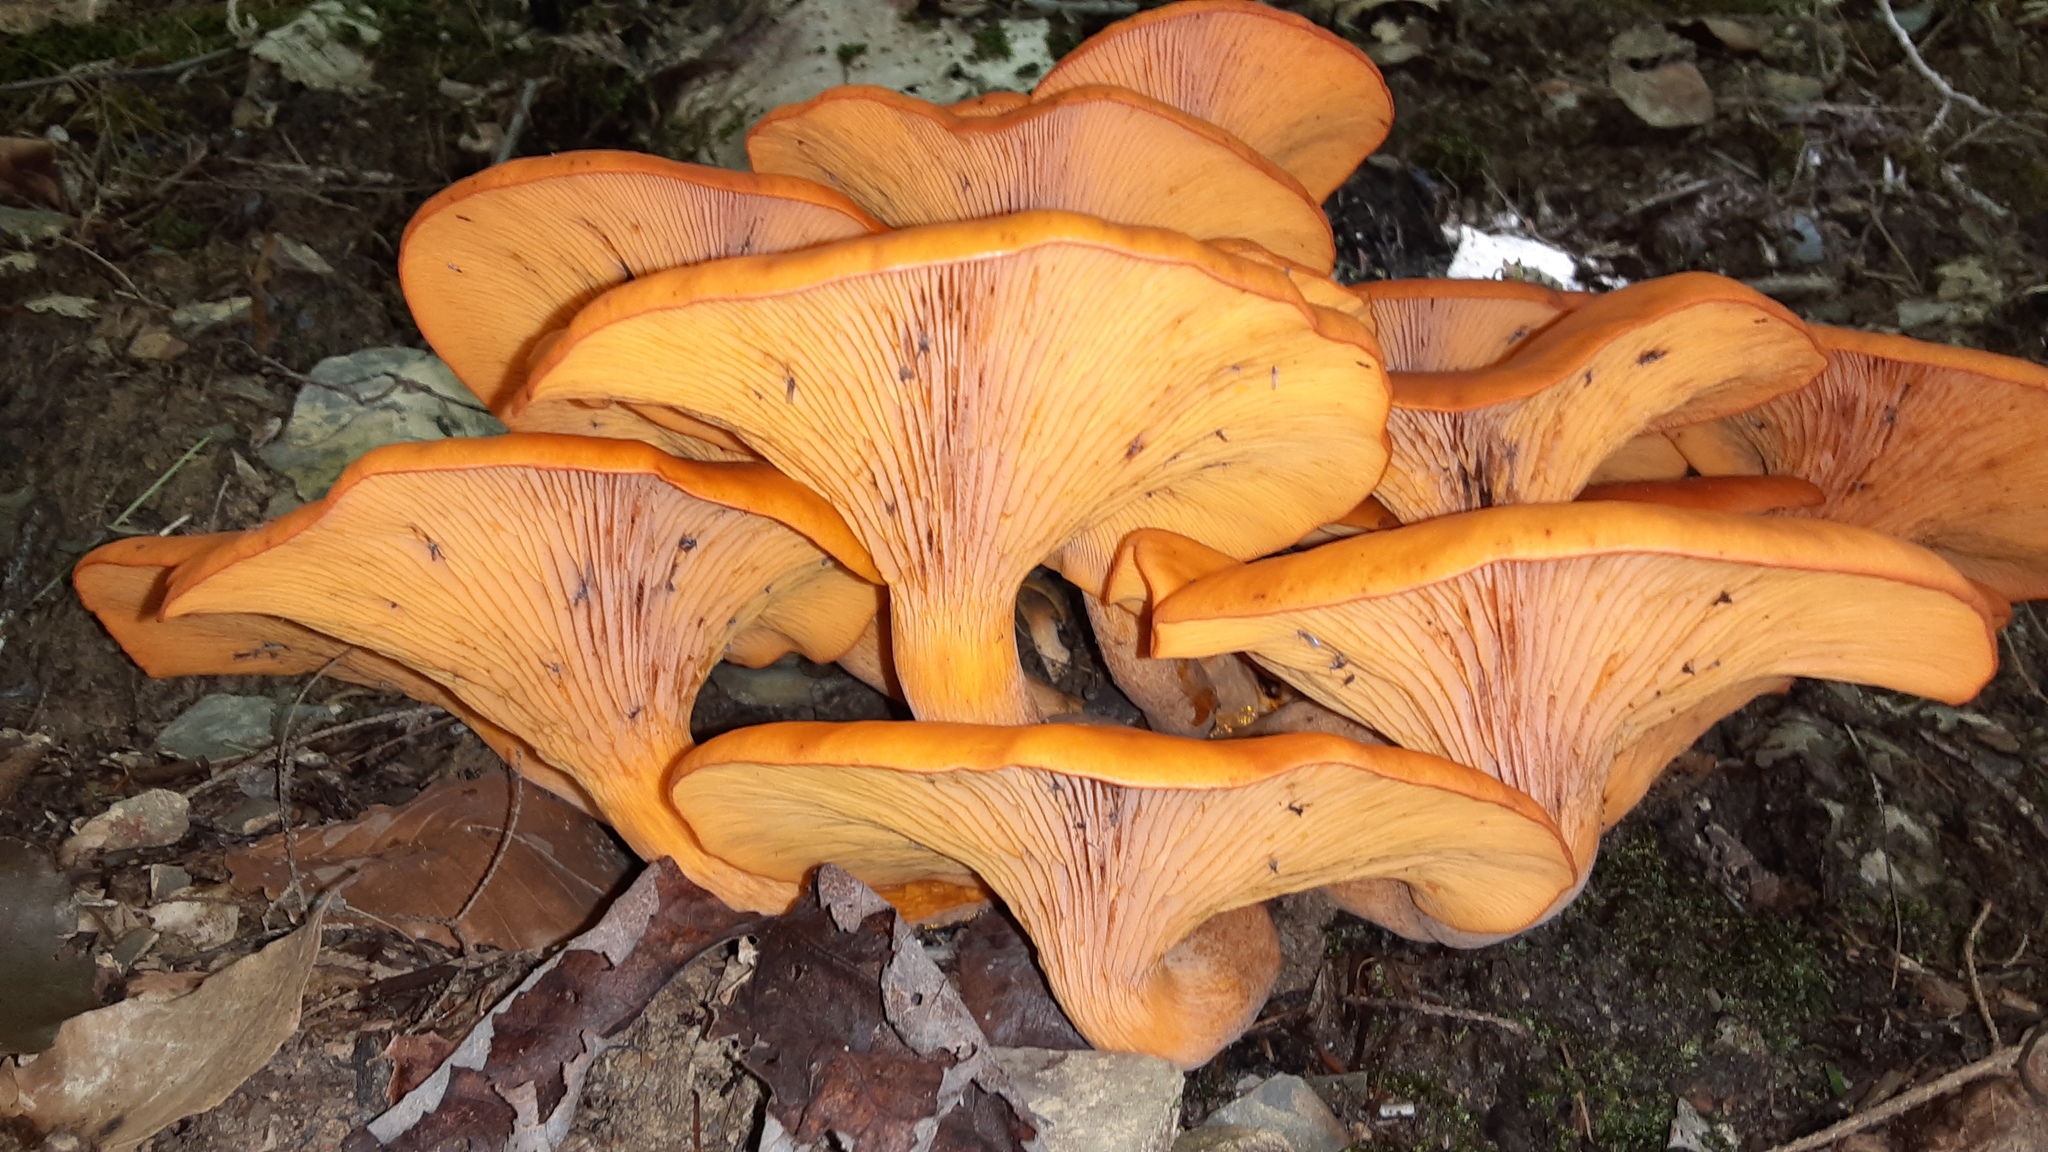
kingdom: Fungi
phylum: Basidiomycota
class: Agaricomycetes
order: Agaricales
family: Omphalotaceae
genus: Omphalotus
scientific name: Omphalotus illudens
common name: Jack o lantern
